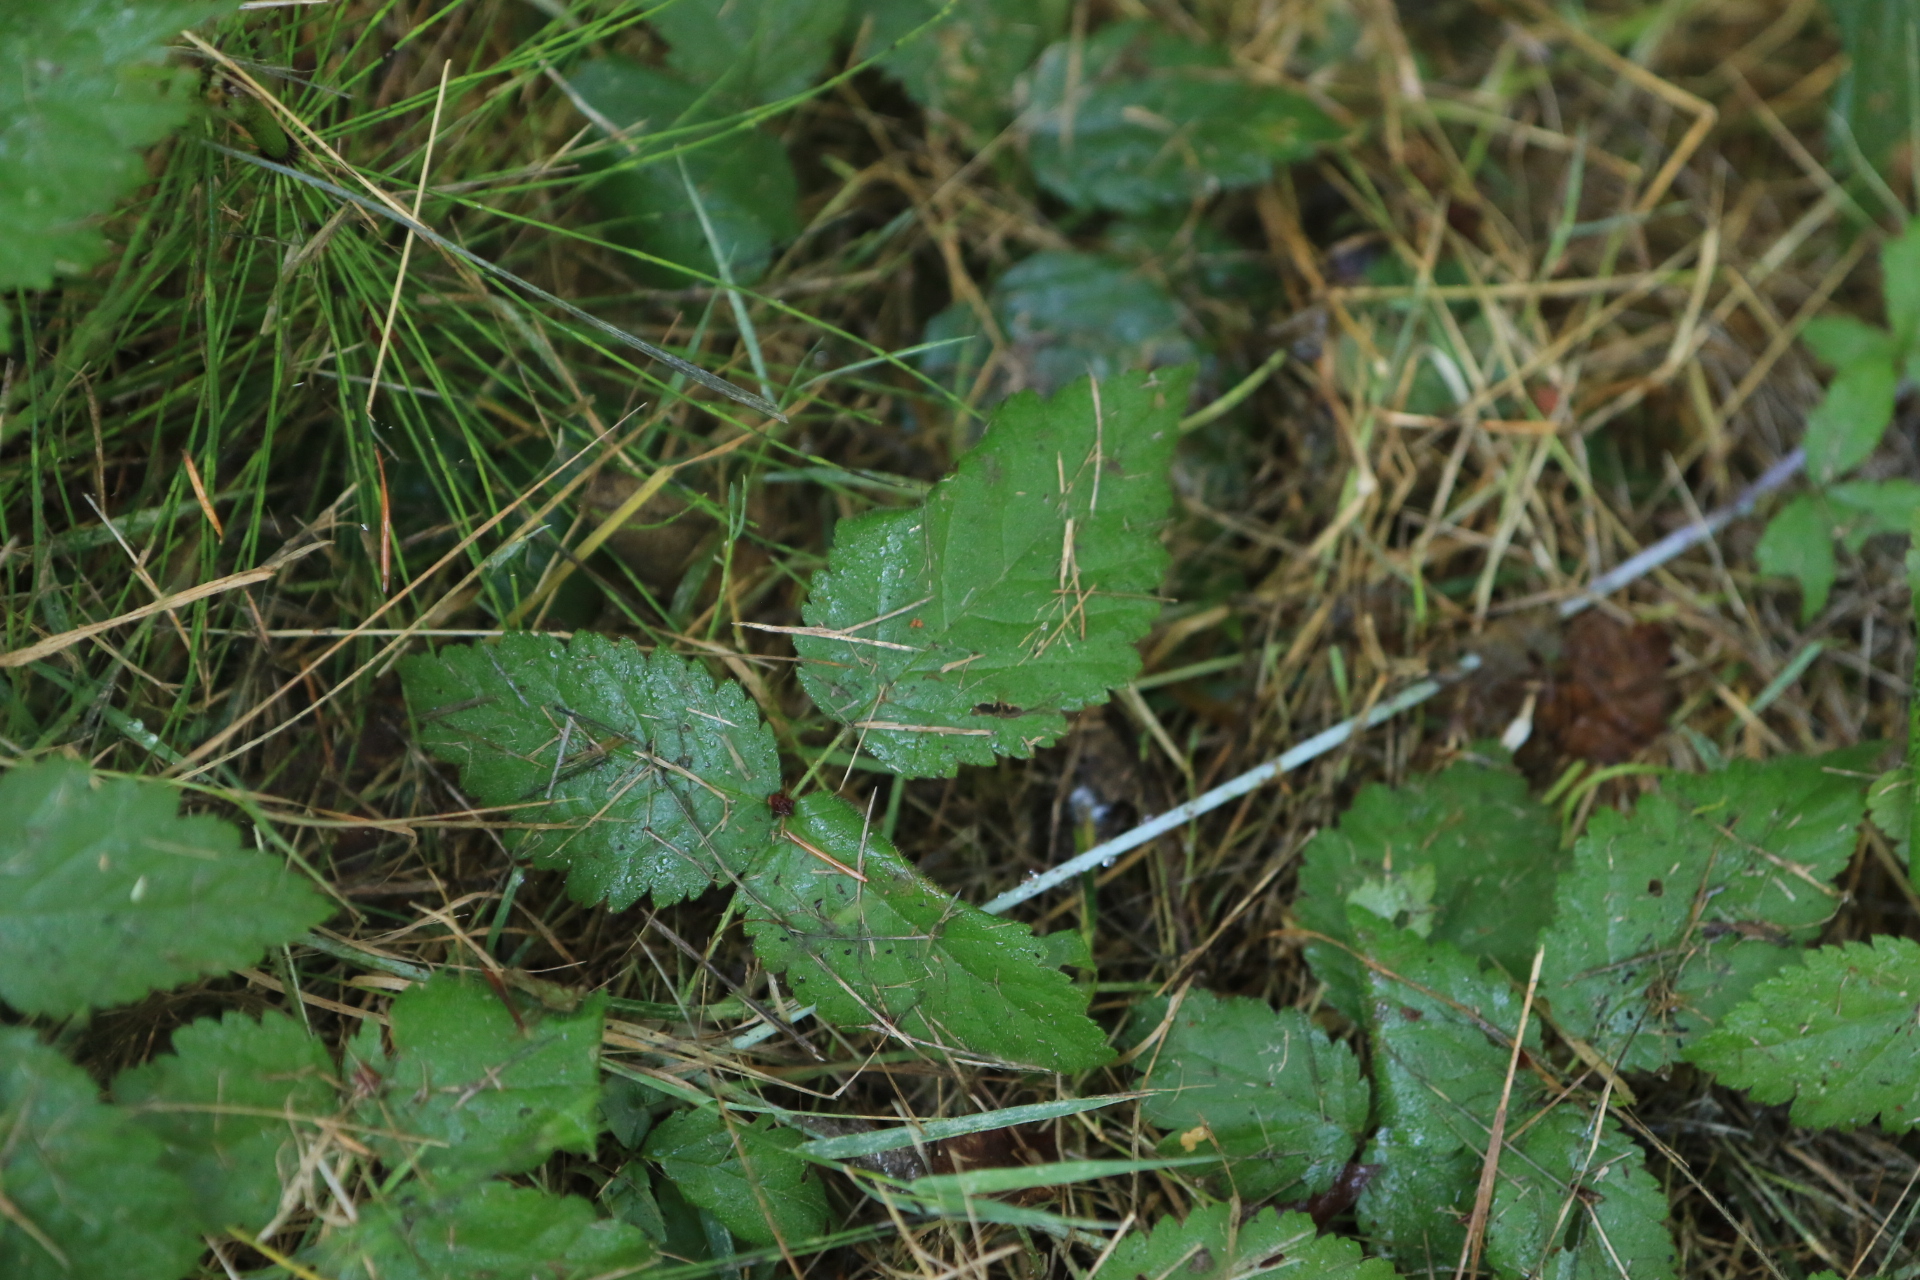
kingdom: Plantae
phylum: Tracheophyta
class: Magnoliopsida
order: Rosales
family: Rosaceae
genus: Rubus
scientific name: Rubus ursinus
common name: Pacific blackberry
